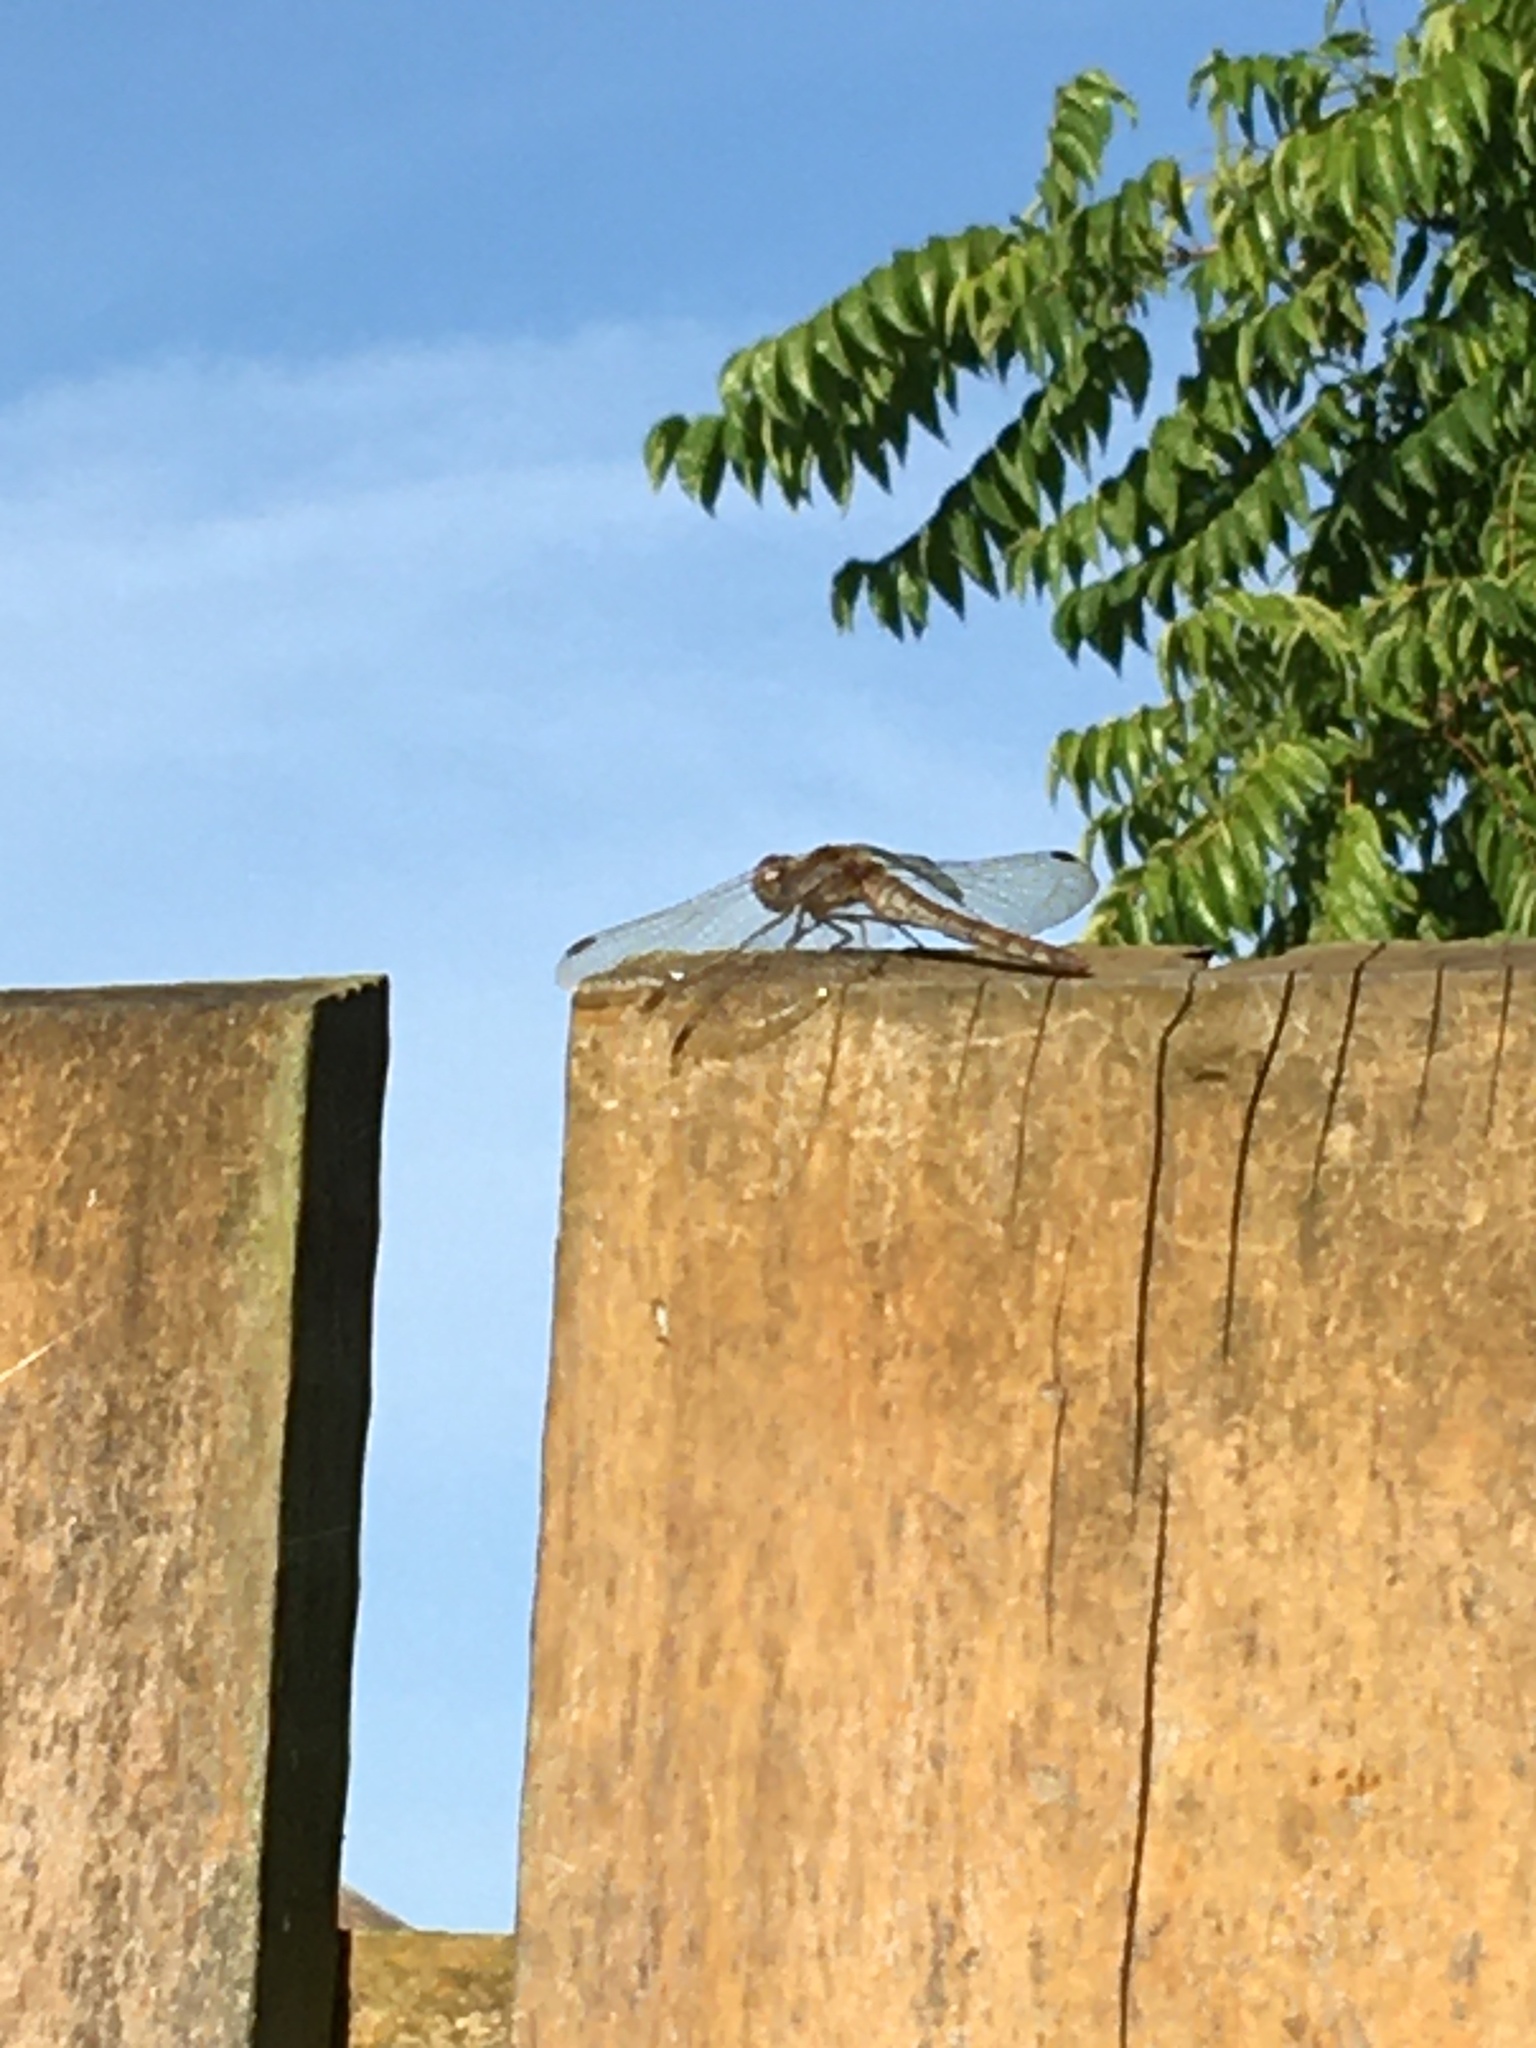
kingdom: Animalia
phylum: Arthropoda
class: Insecta
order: Odonata
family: Libellulidae
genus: Sympetrum
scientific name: Sympetrum striolatum
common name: Common darter
